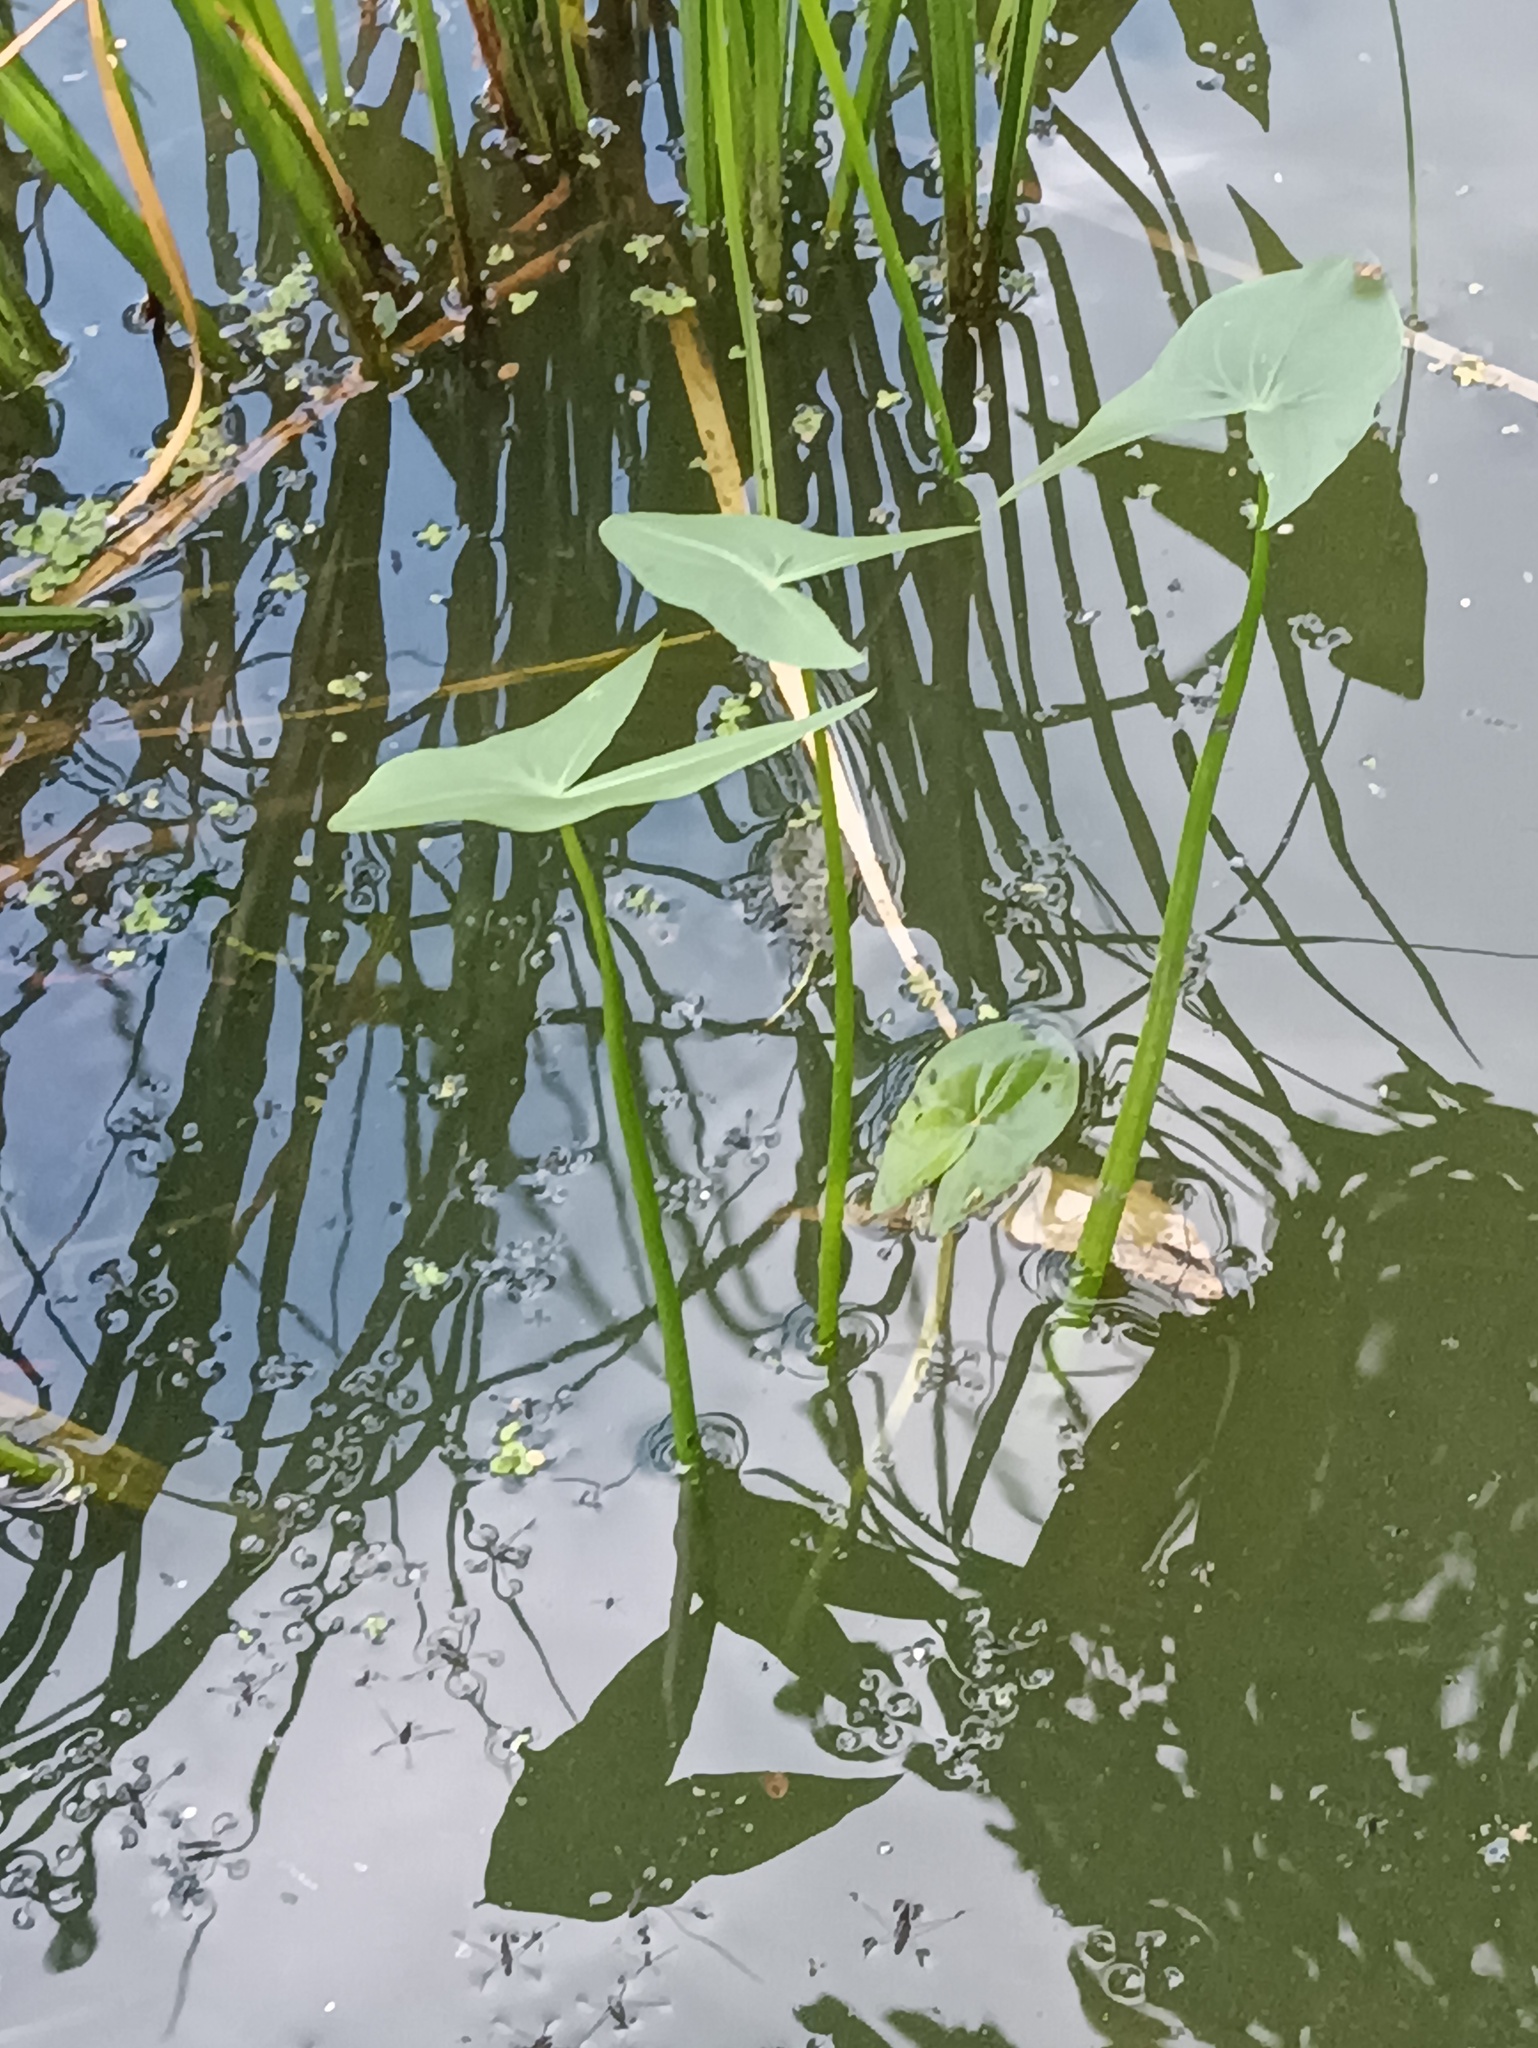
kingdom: Plantae
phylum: Tracheophyta
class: Liliopsida
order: Alismatales
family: Alismataceae
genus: Sagittaria
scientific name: Sagittaria sagittifolia
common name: Arrowhead
